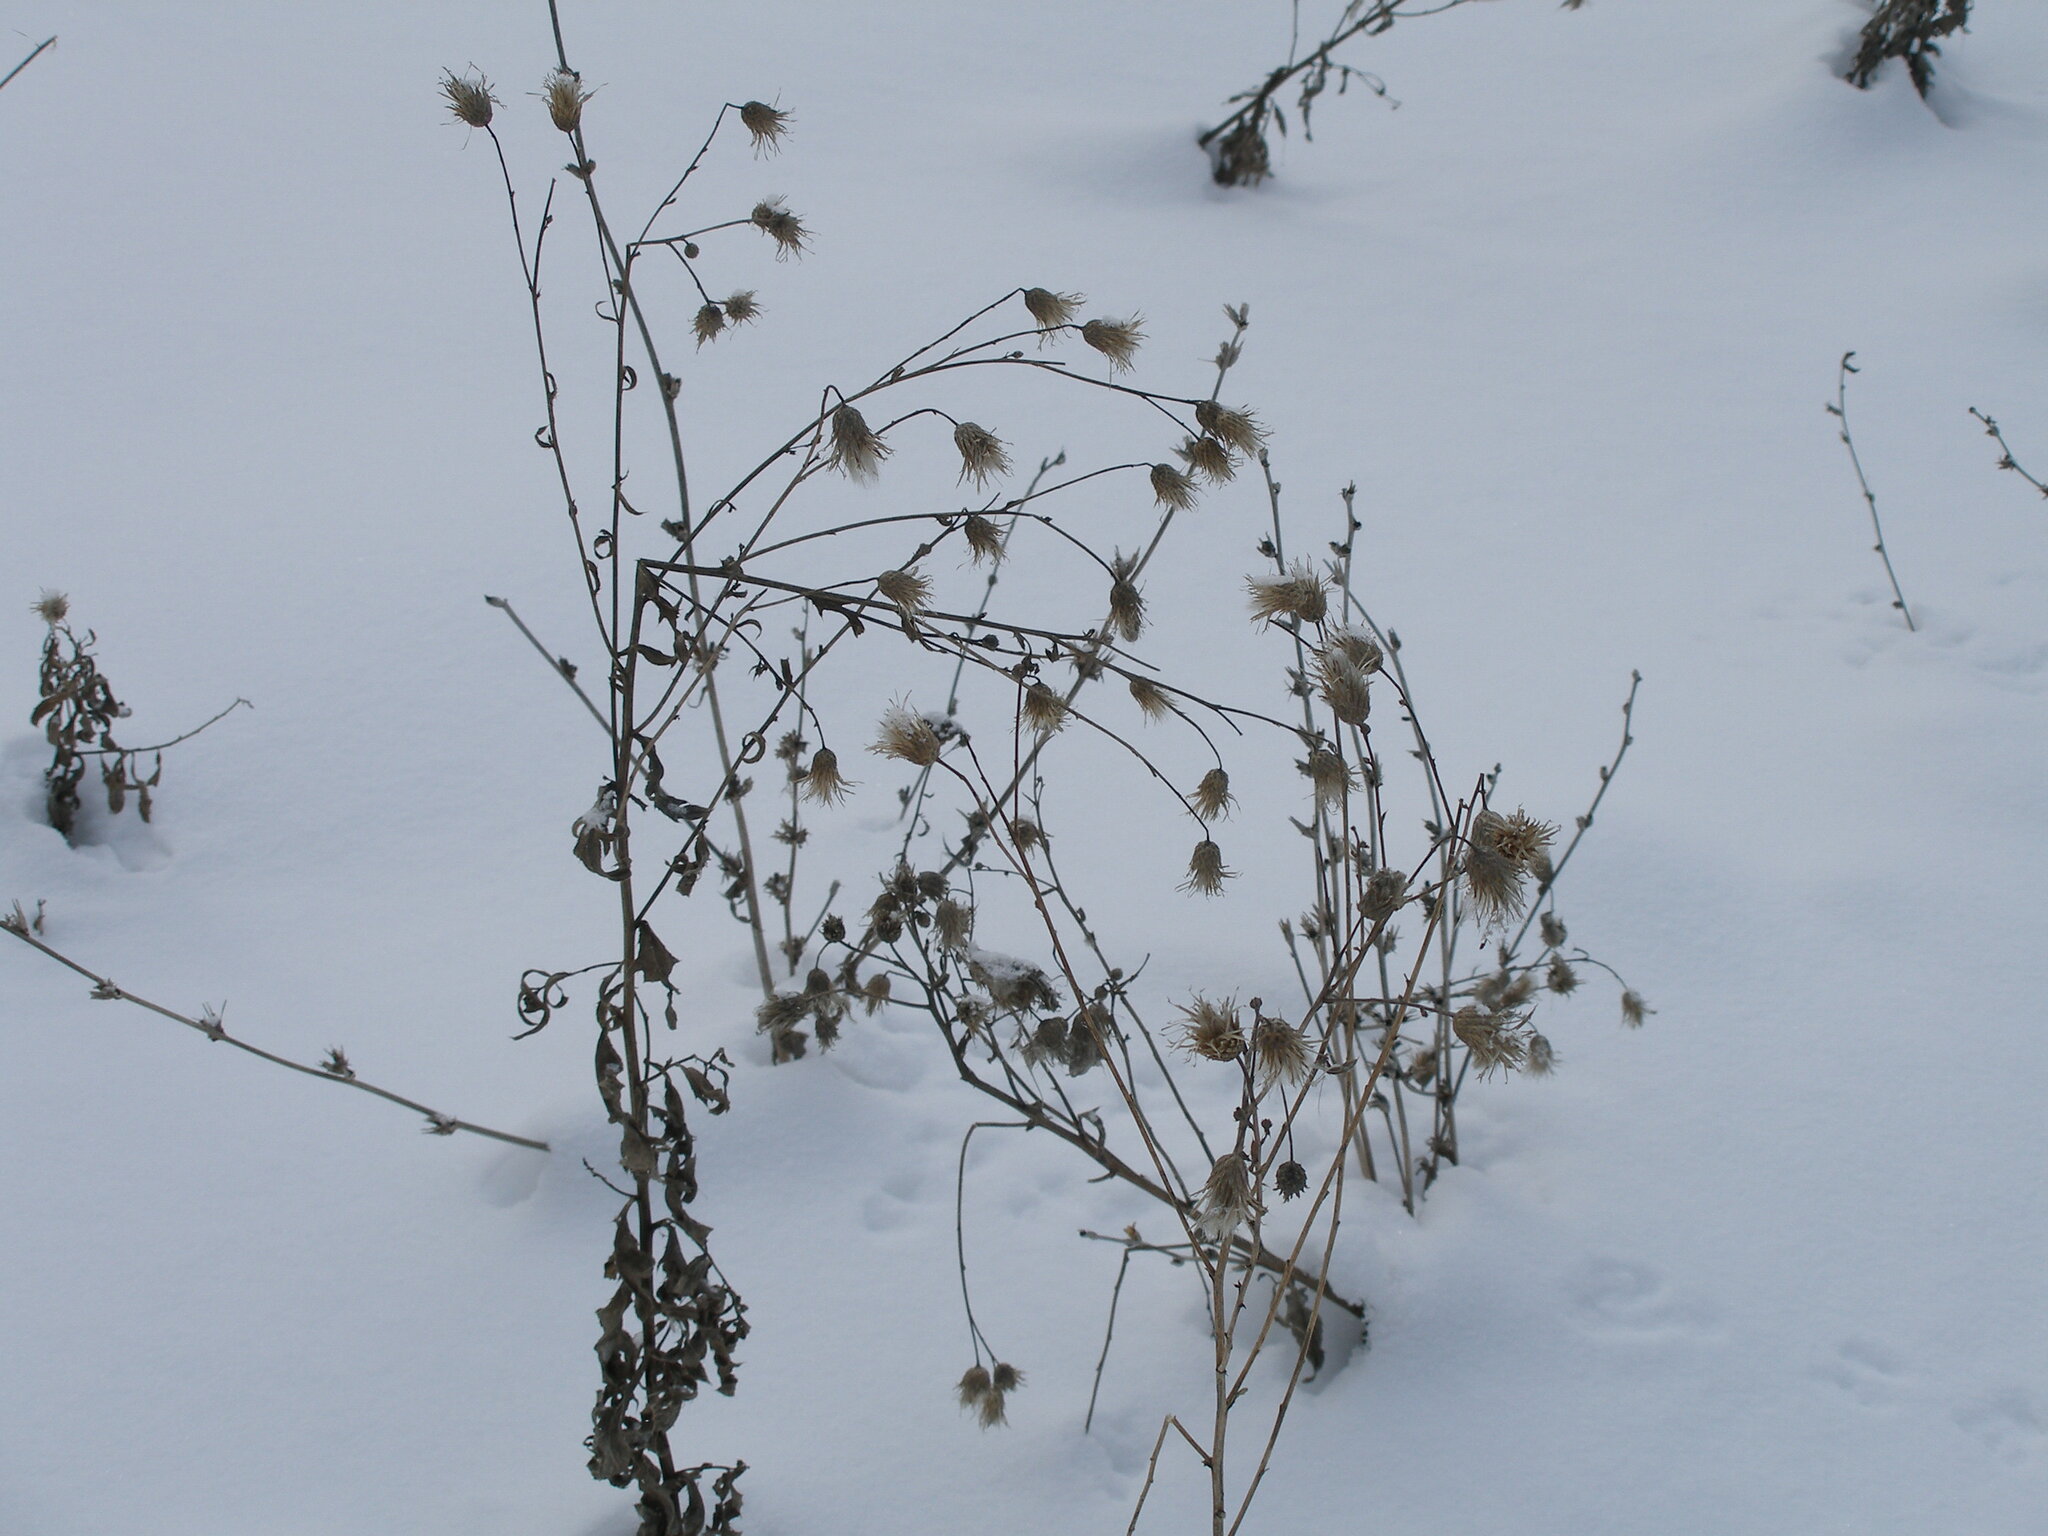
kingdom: Plantae
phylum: Tracheophyta
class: Magnoliopsida
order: Asterales
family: Asteraceae
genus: Cirsium
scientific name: Cirsium arvense
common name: Creeping thistle
